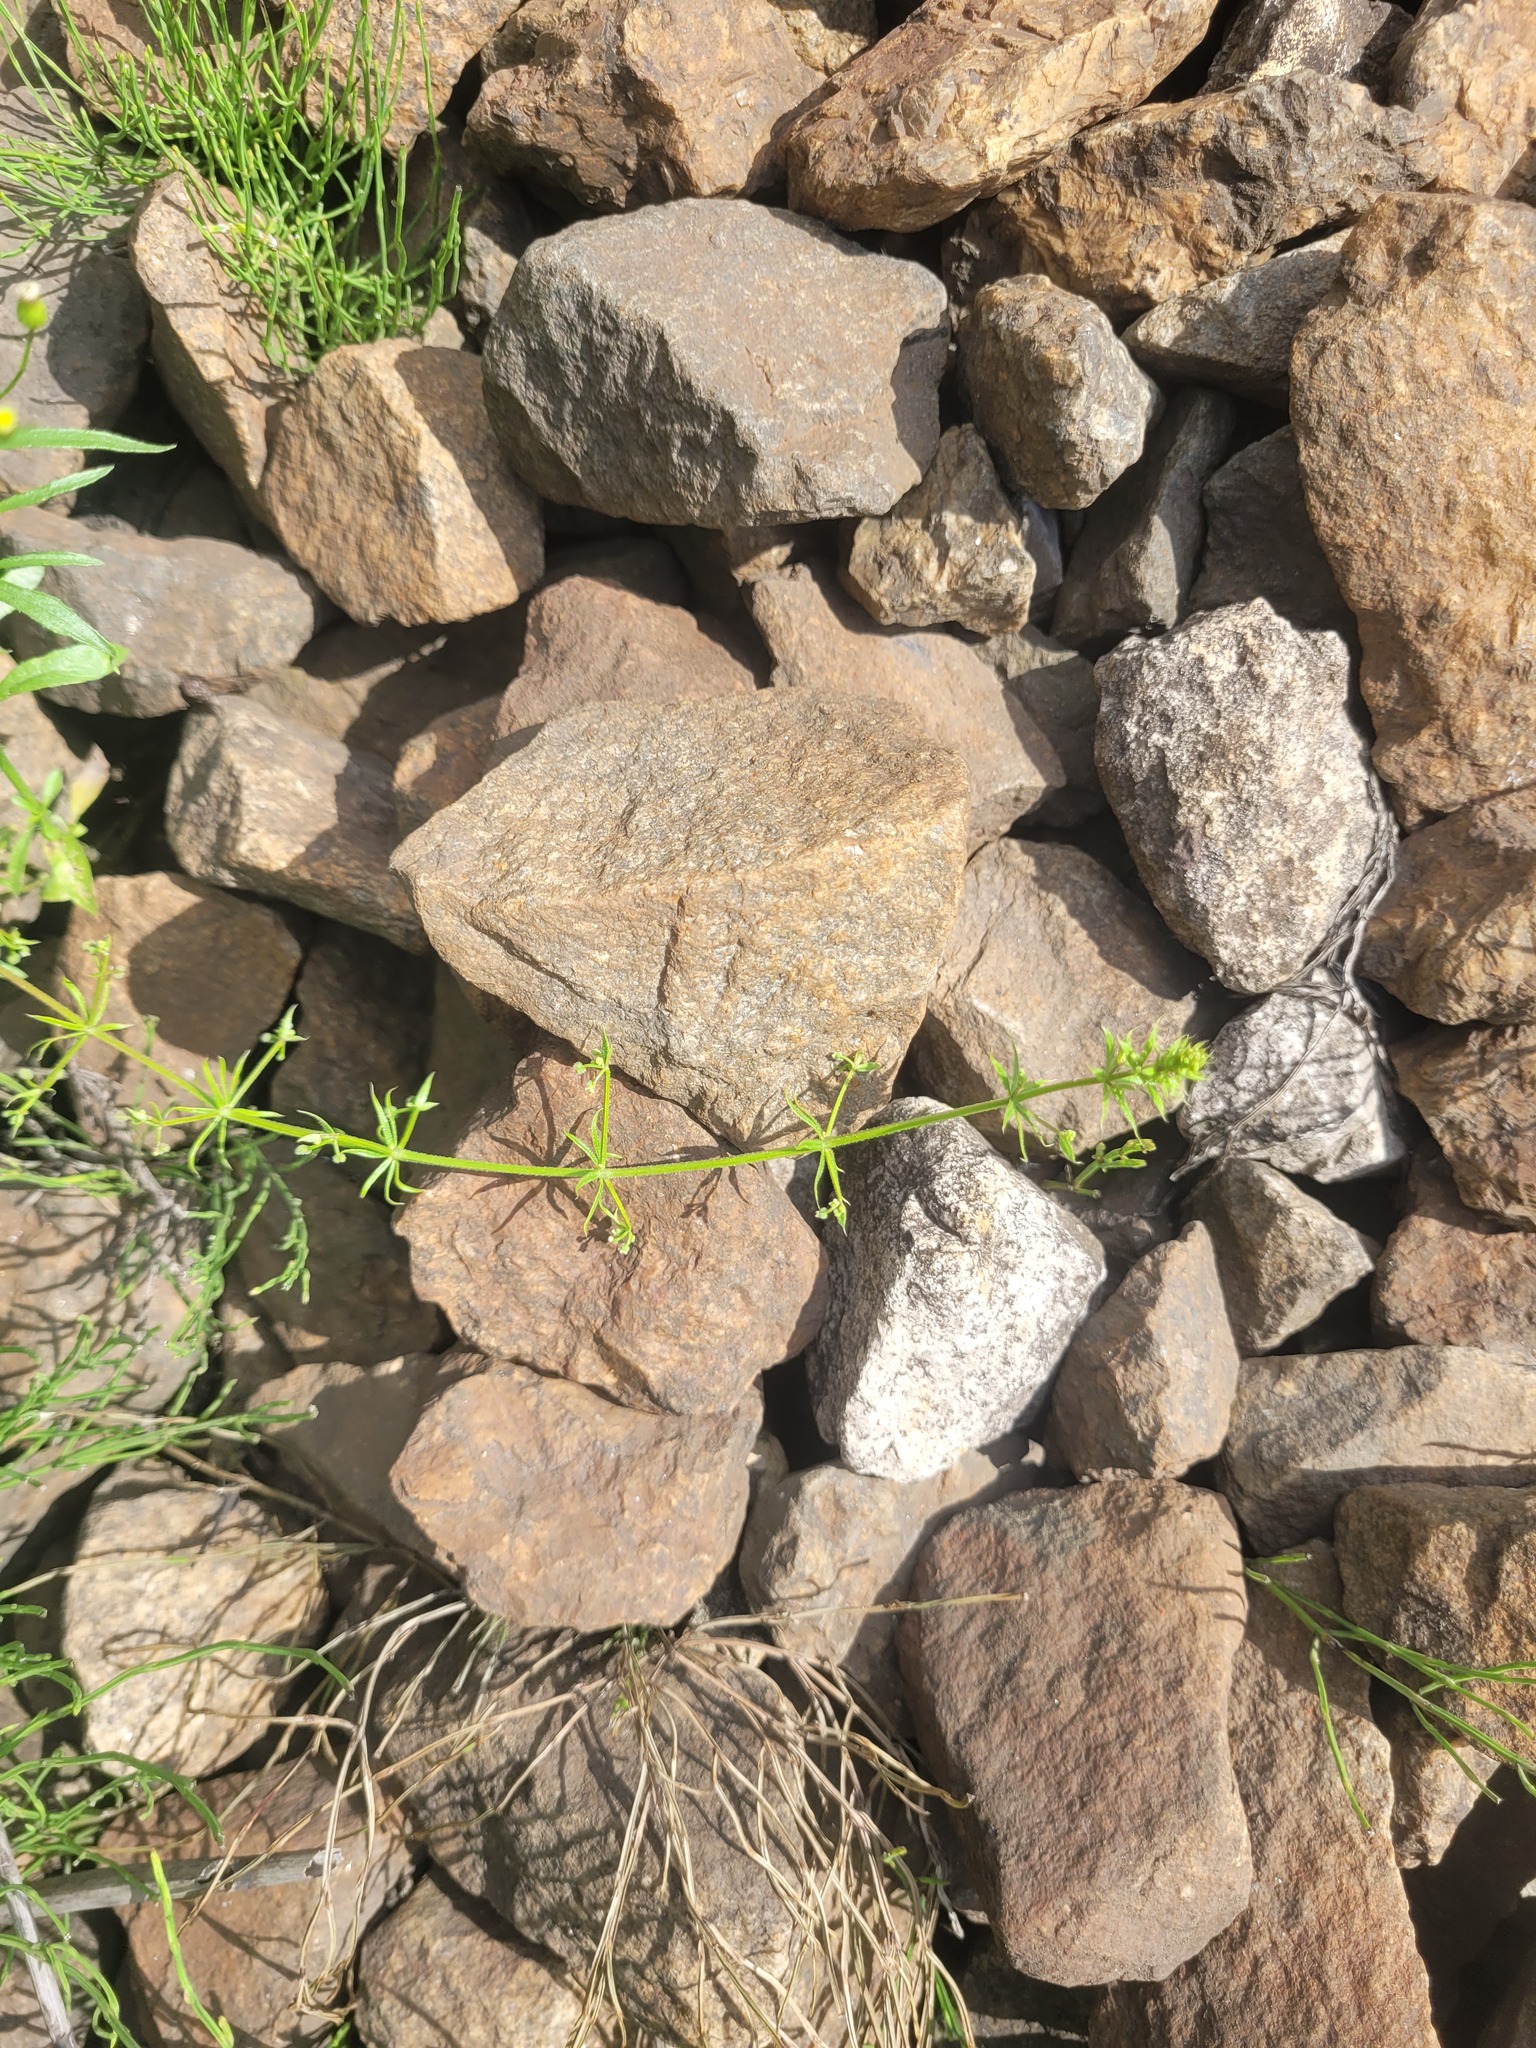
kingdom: Plantae
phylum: Tracheophyta
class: Magnoliopsida
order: Gentianales
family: Rubiaceae
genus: Galium
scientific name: Galium
